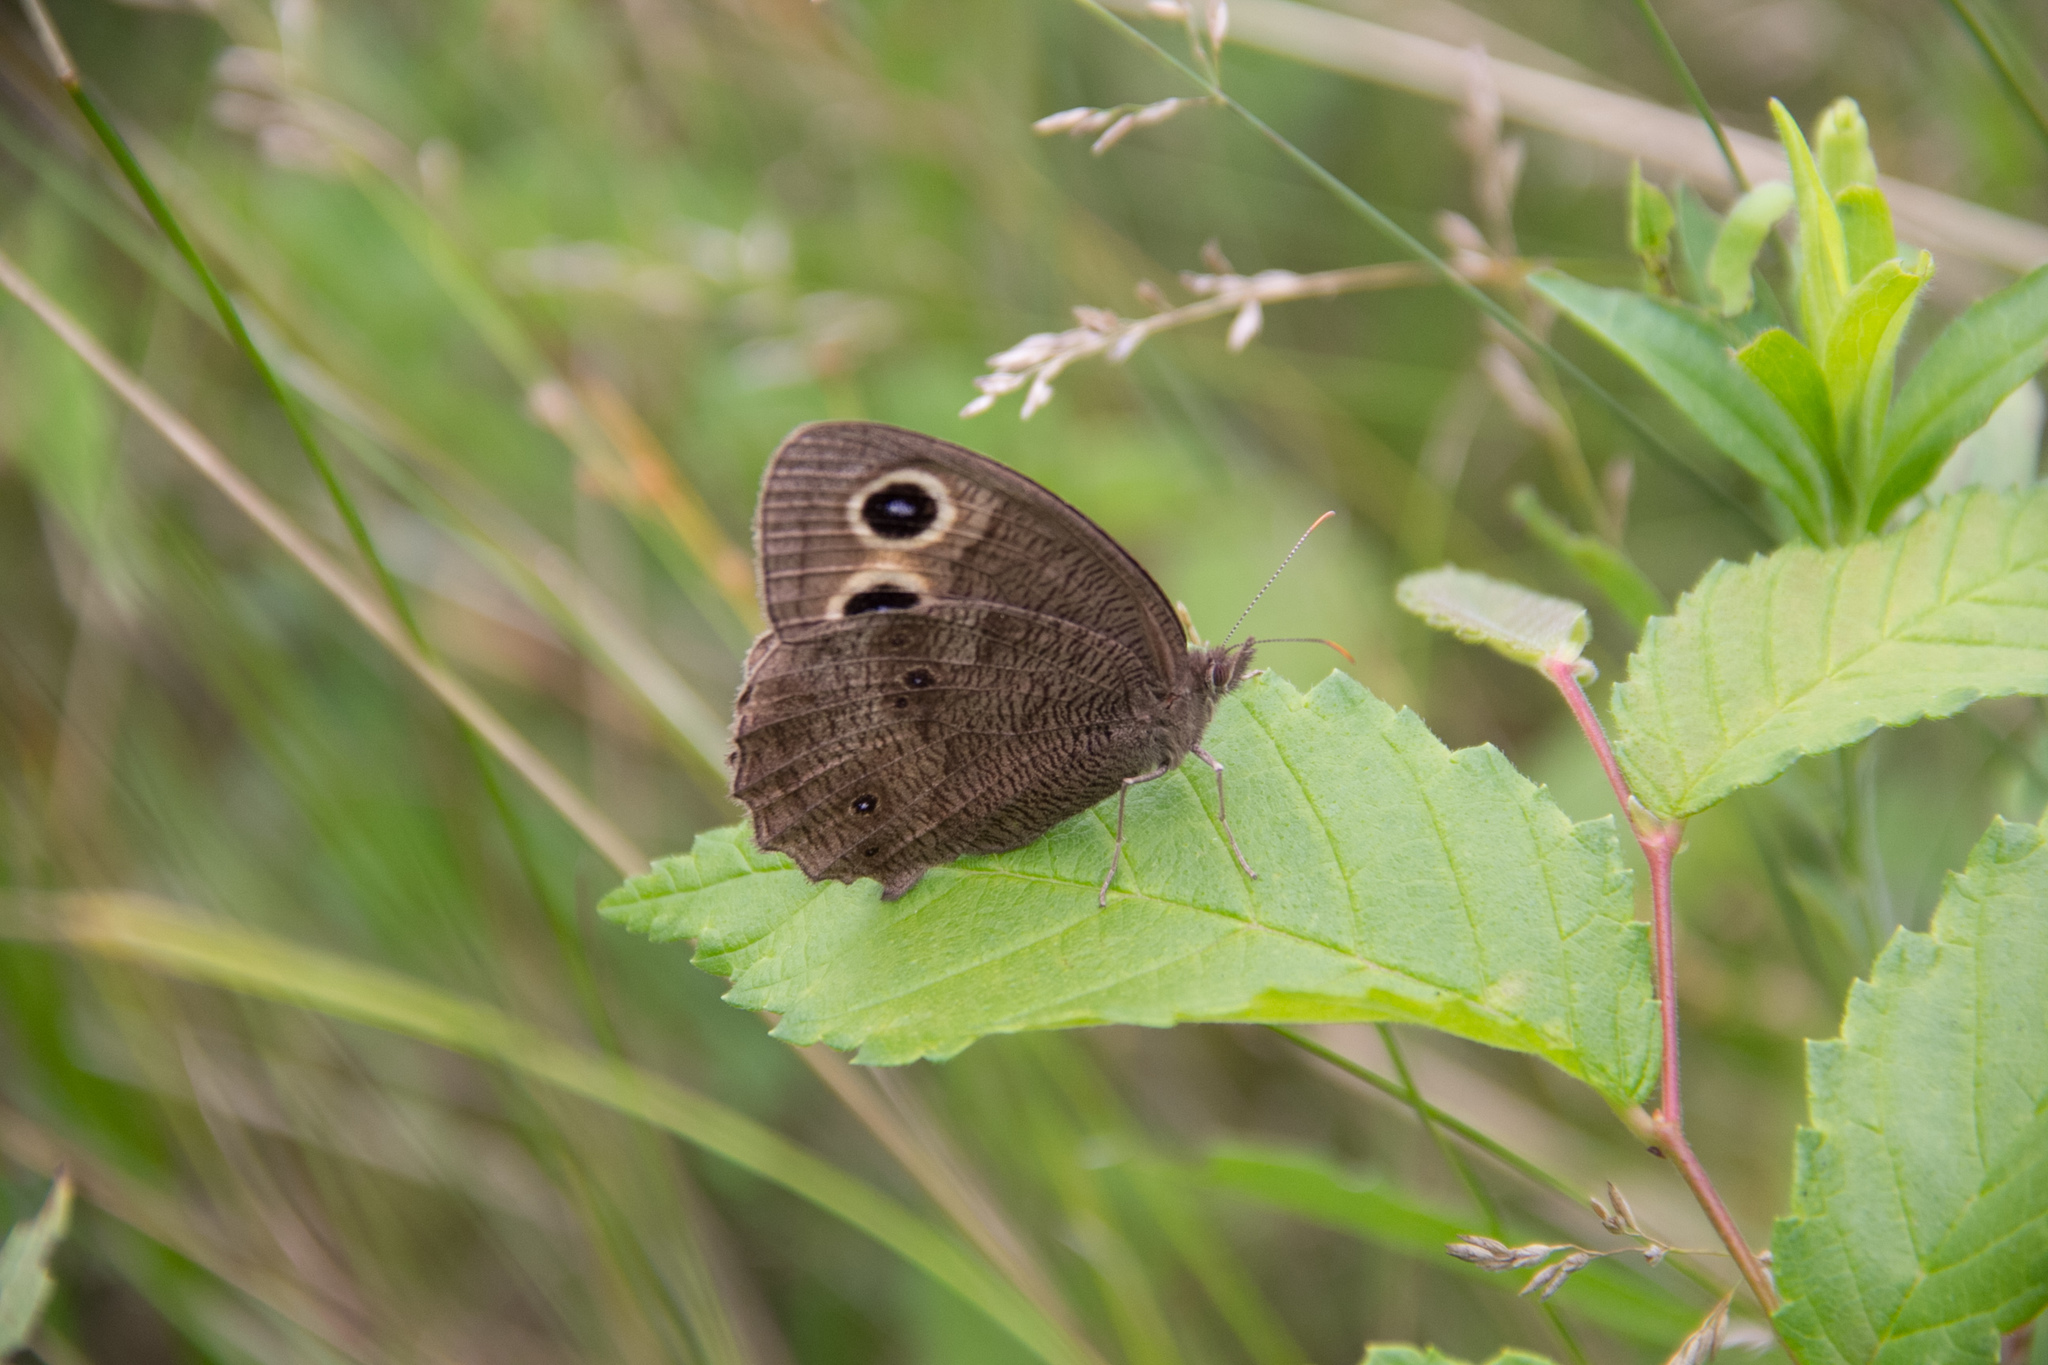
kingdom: Animalia
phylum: Arthropoda
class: Insecta
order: Lepidoptera
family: Nymphalidae
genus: Cercyonis
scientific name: Cercyonis pegala
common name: Common wood-nymph
